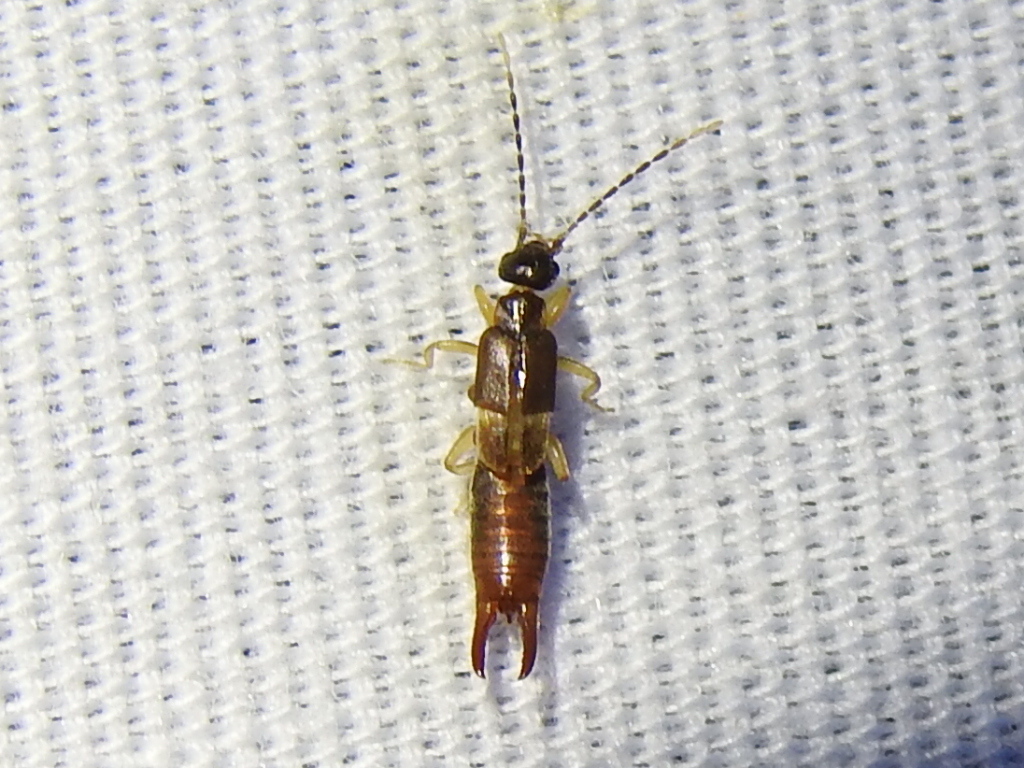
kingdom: Animalia
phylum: Arthropoda
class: Insecta
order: Dermaptera
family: Spongiphoridae
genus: Labia
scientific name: Labia minor
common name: Lesser earwig
